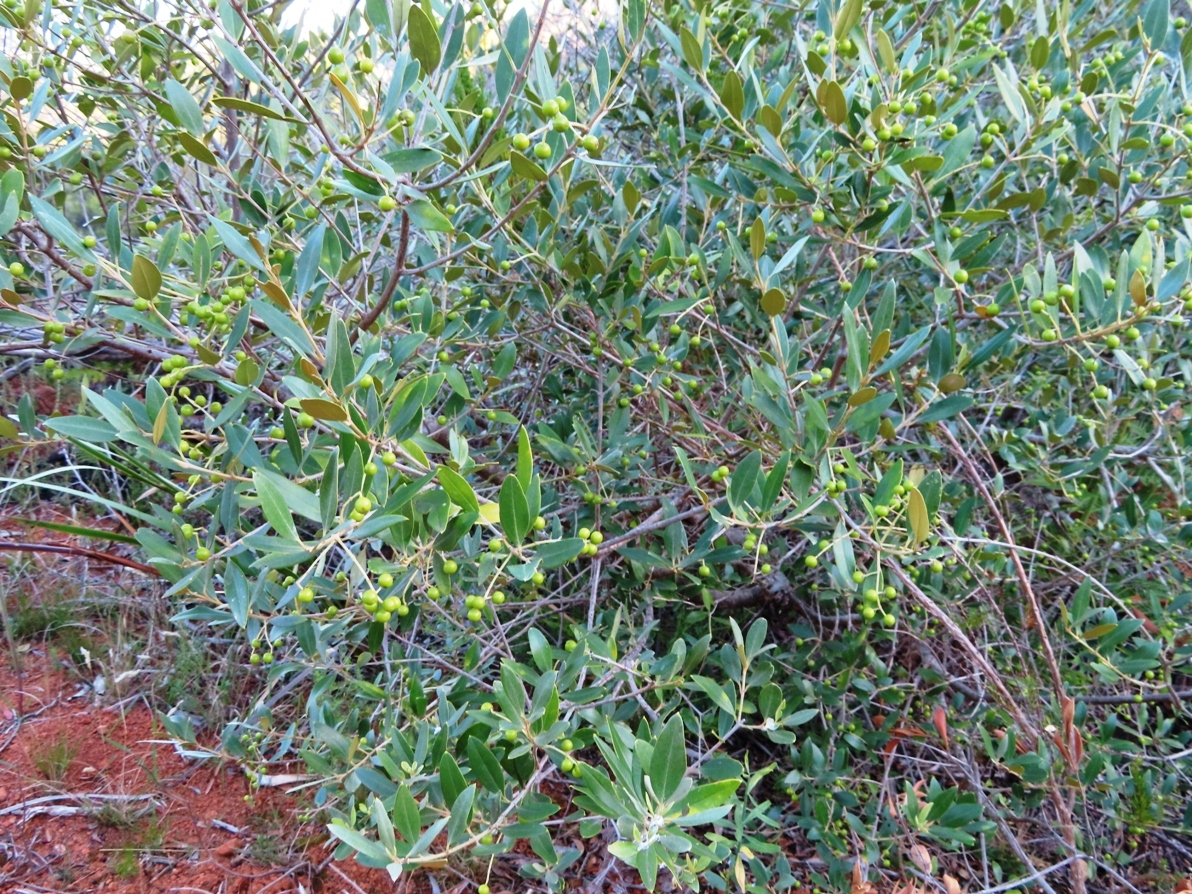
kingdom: Plantae
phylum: Tracheophyta
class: Magnoliopsida
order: Lamiales
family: Oleaceae
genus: Olea
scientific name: Olea europaea
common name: Olive
